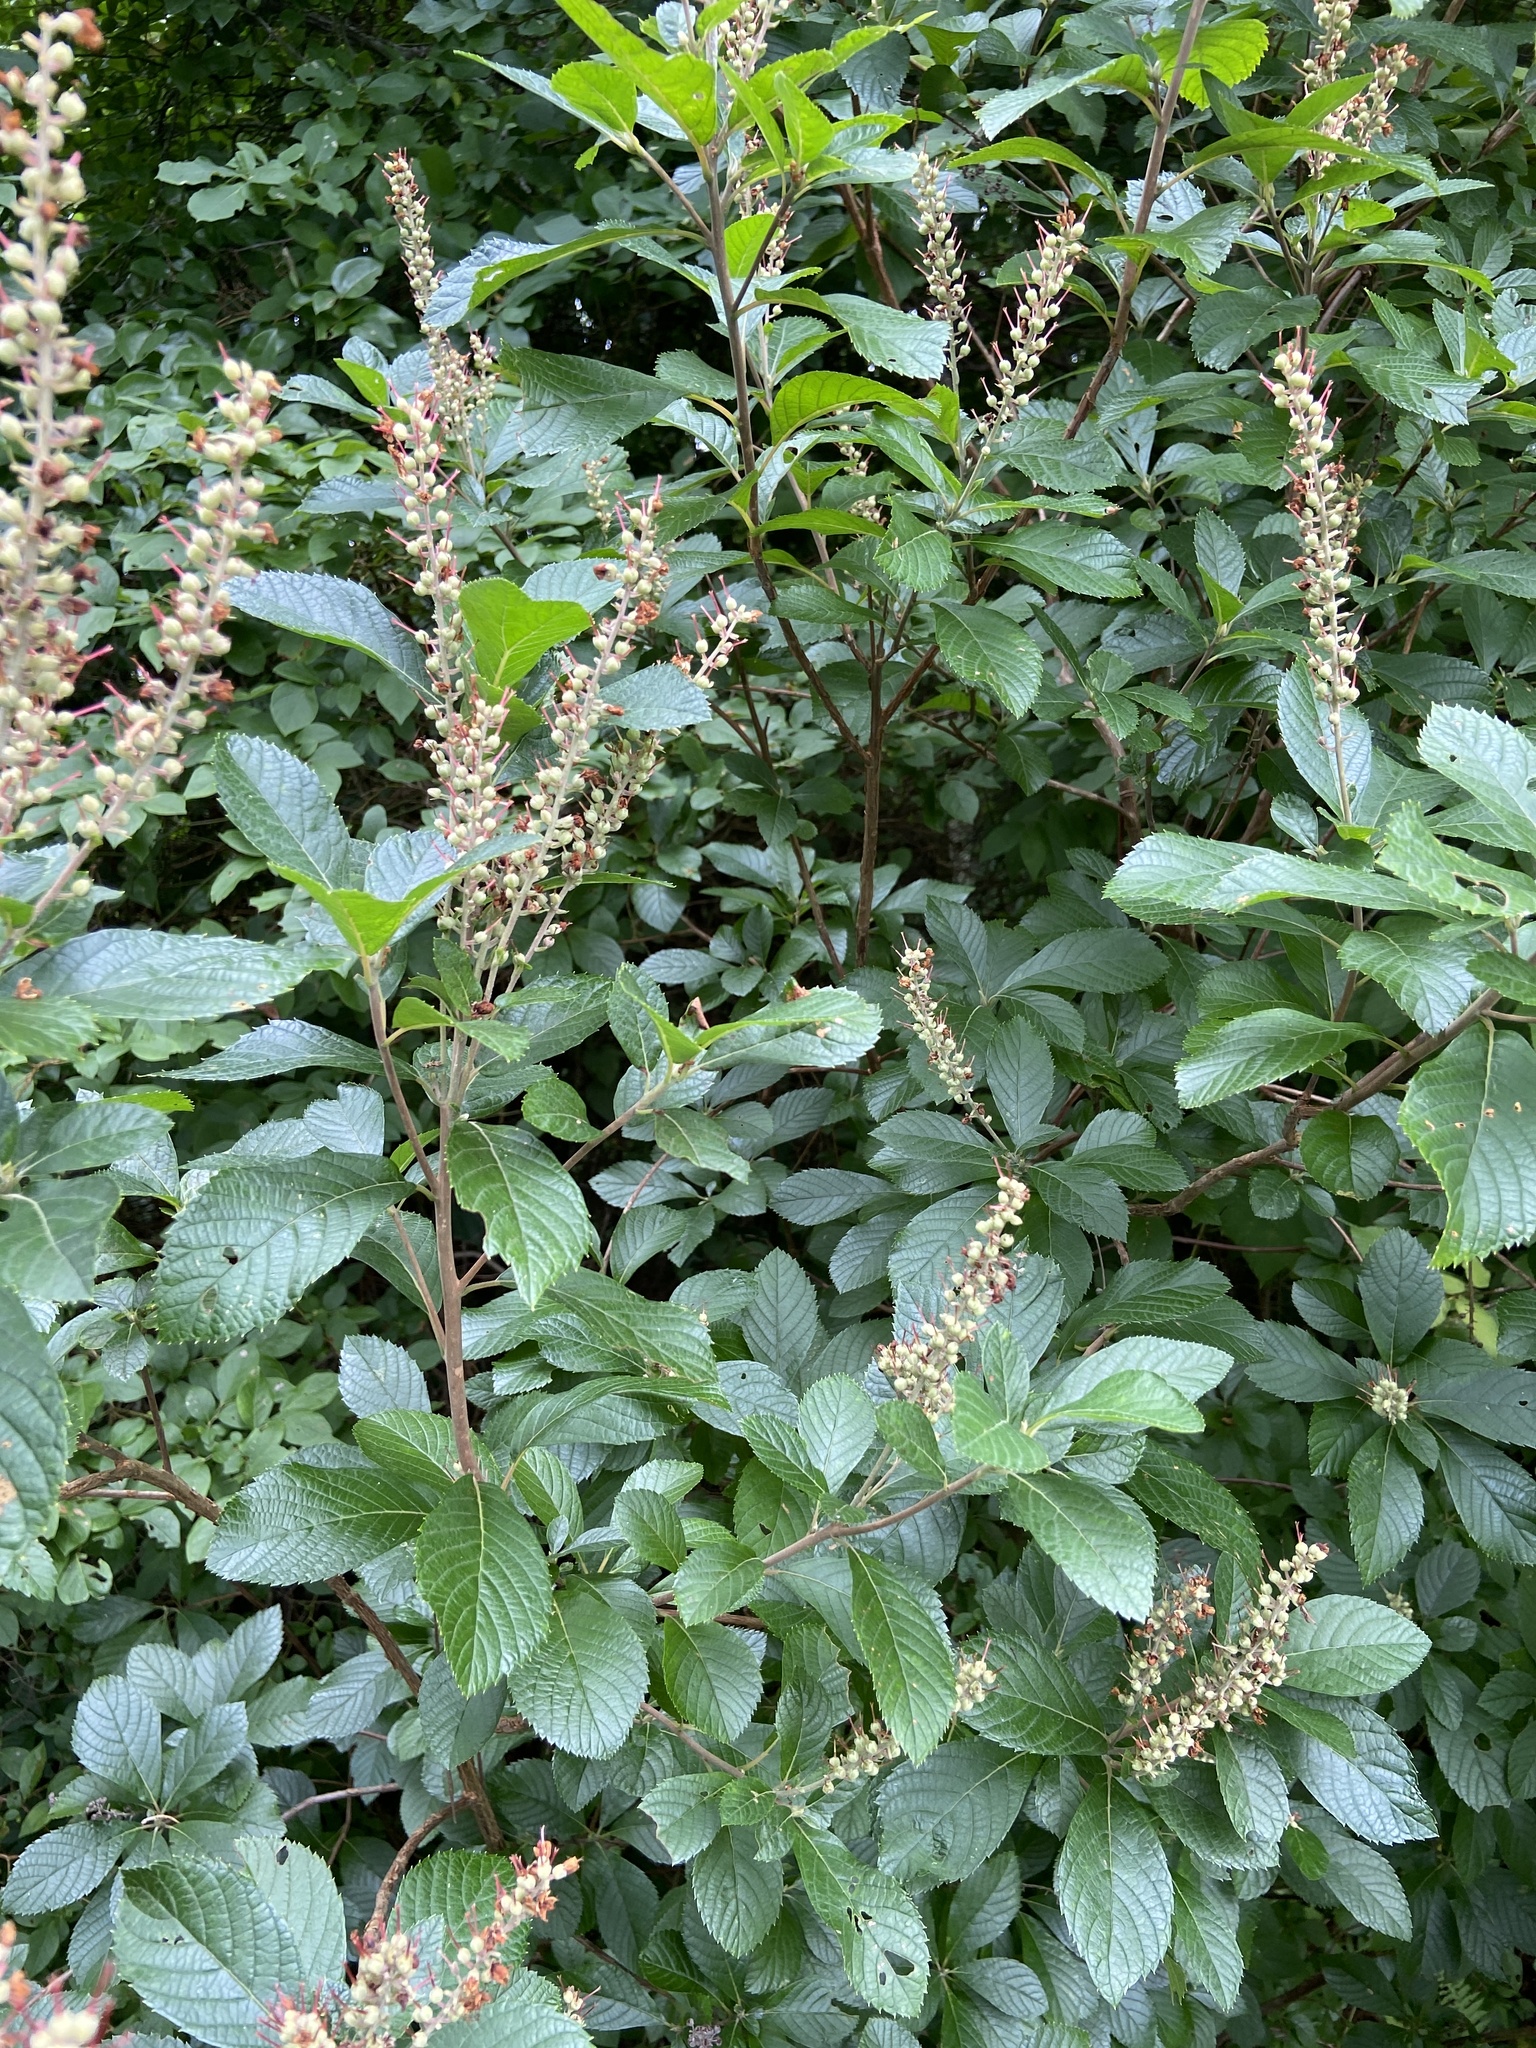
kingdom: Plantae
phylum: Tracheophyta
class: Magnoliopsida
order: Ericales
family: Clethraceae
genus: Clethra
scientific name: Clethra alnifolia
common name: Sweet pepperbush
